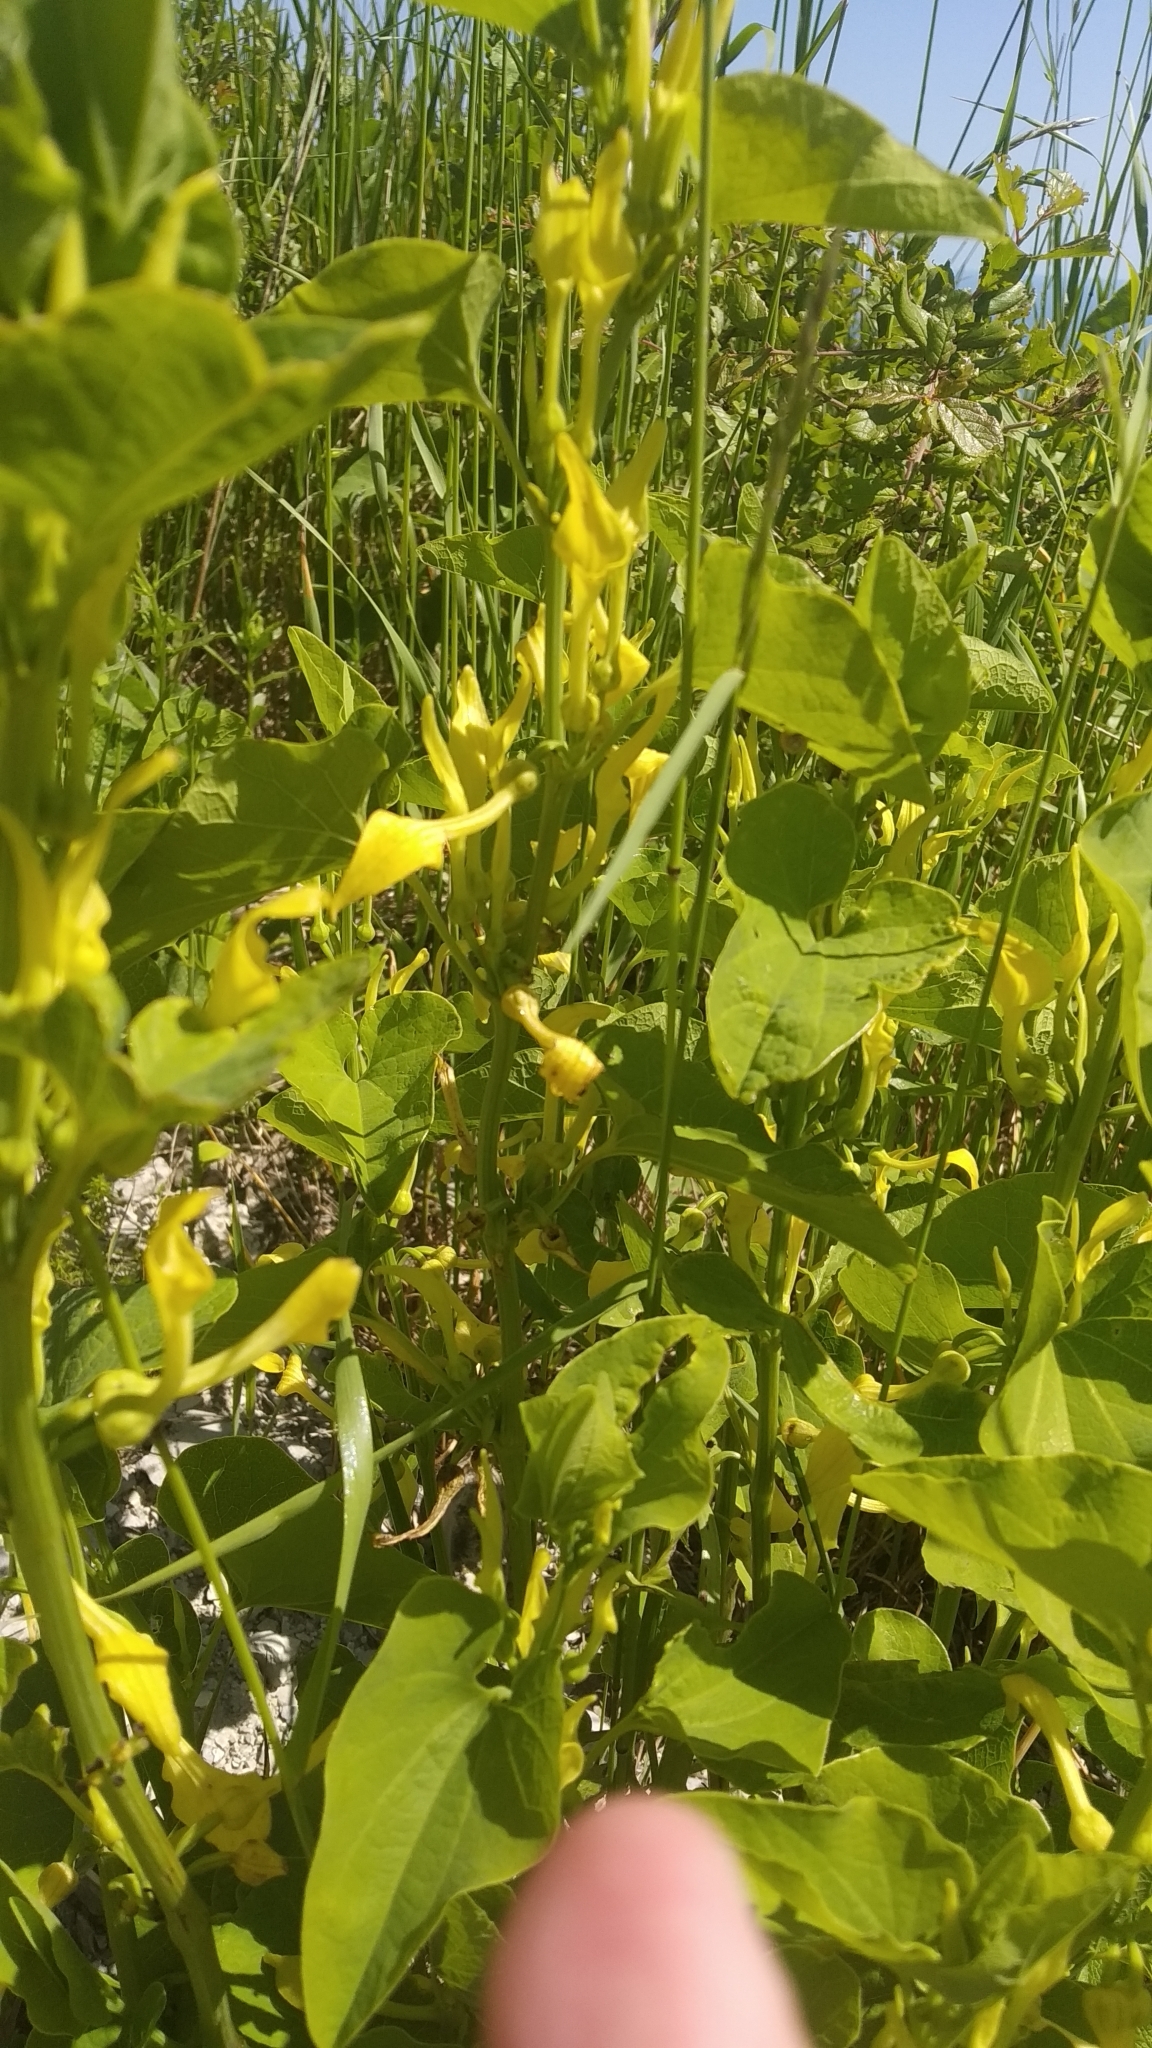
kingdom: Plantae
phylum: Tracheophyta
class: Magnoliopsida
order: Piperales
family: Aristolochiaceae
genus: Aristolochia
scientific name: Aristolochia clematitis
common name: Birthwort
